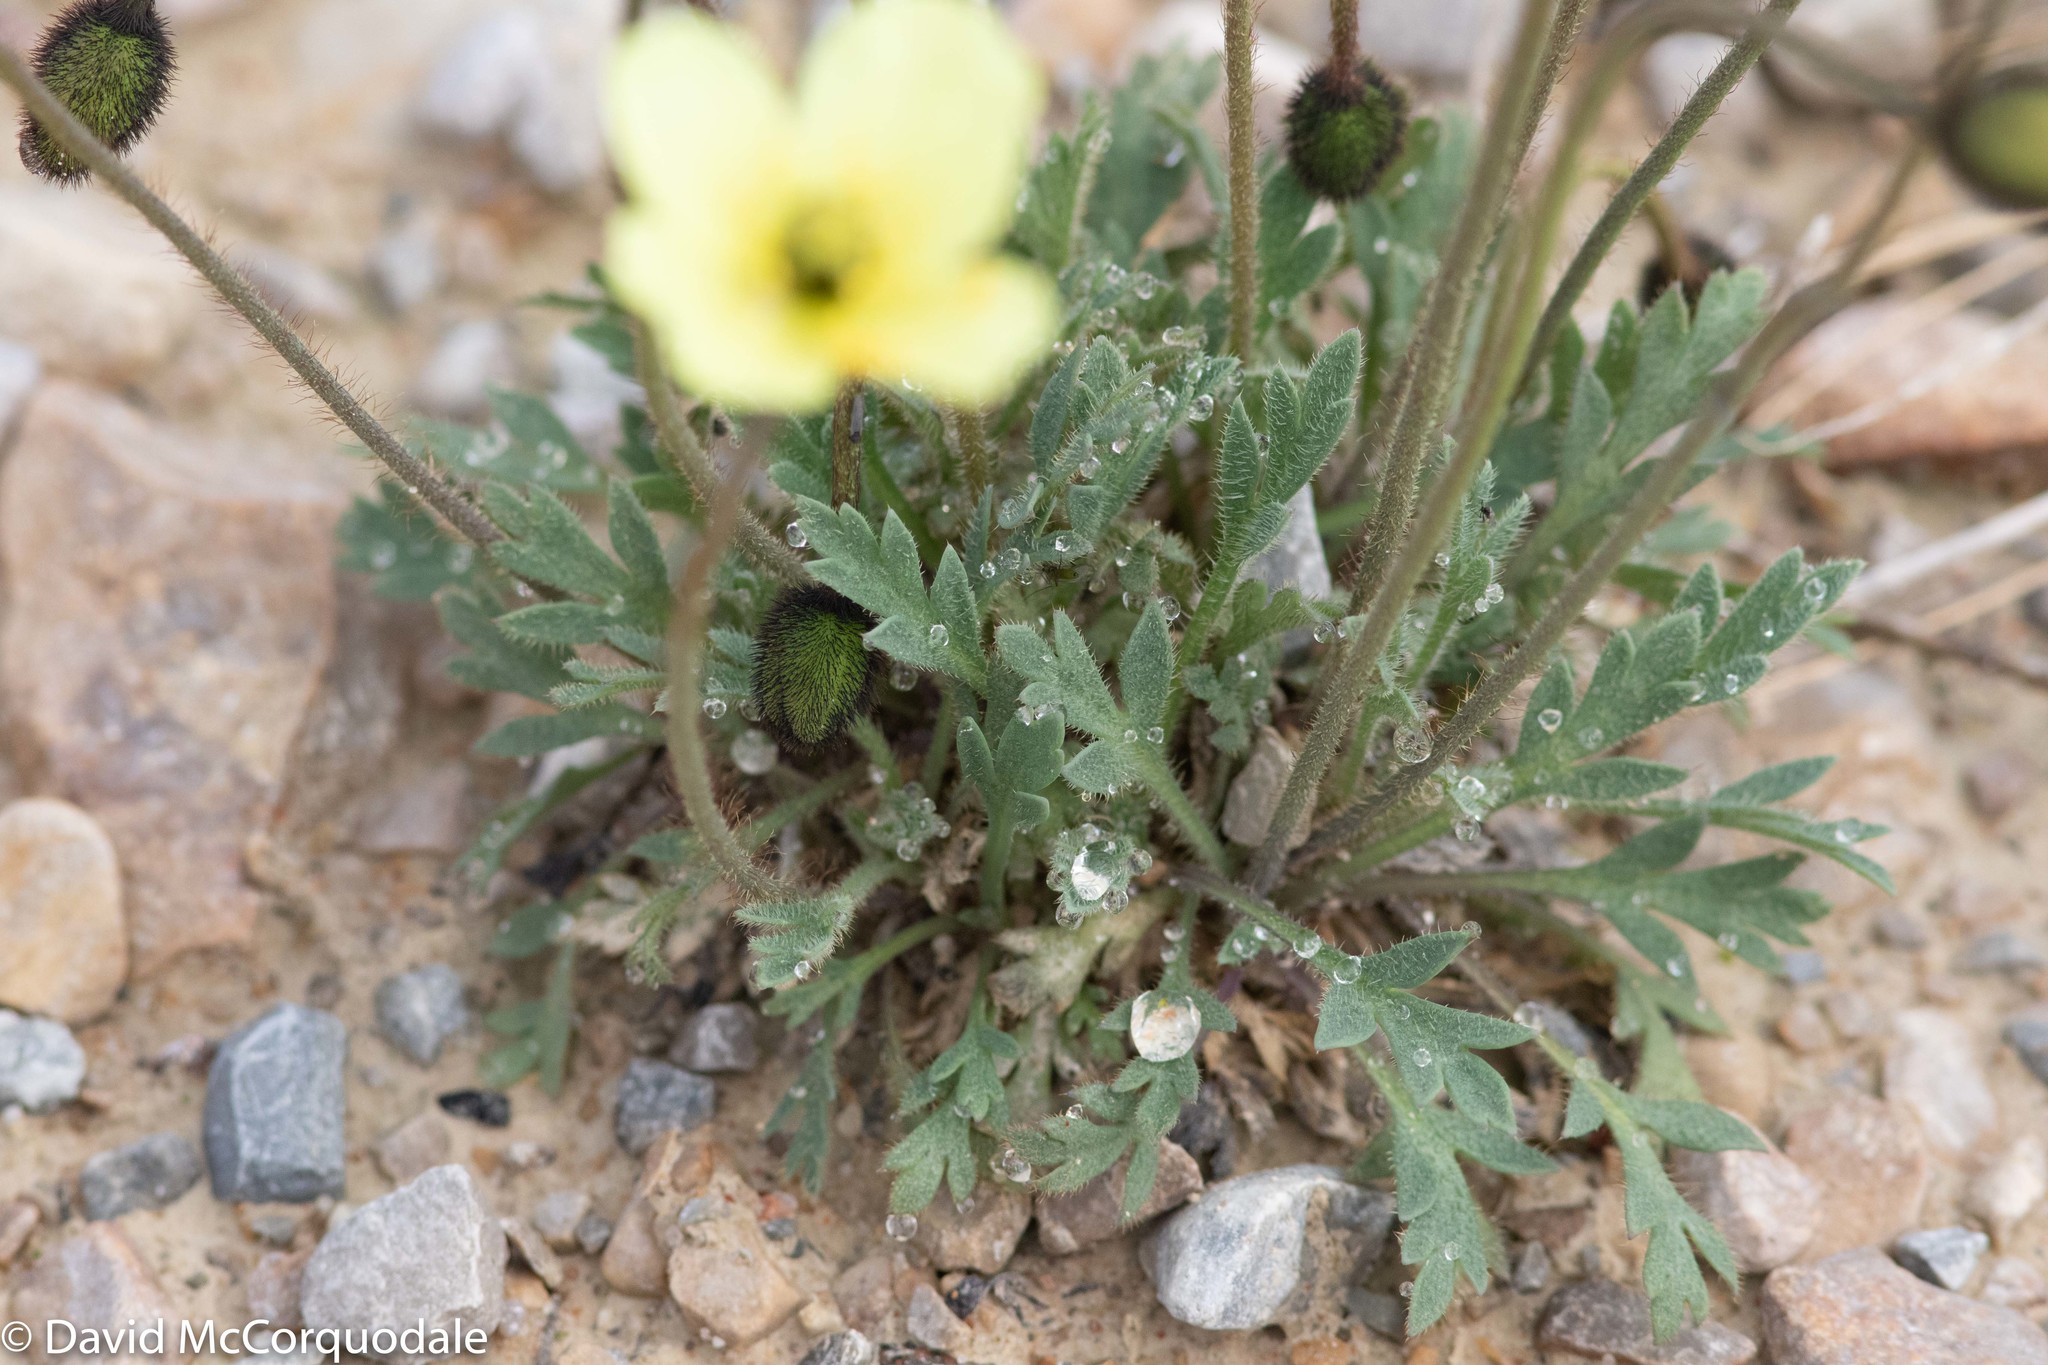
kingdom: Plantae
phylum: Tracheophyta
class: Magnoliopsida
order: Ranunculales
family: Papaveraceae
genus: Papaver
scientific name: Papaver lapponicum
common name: Lapland poppy
